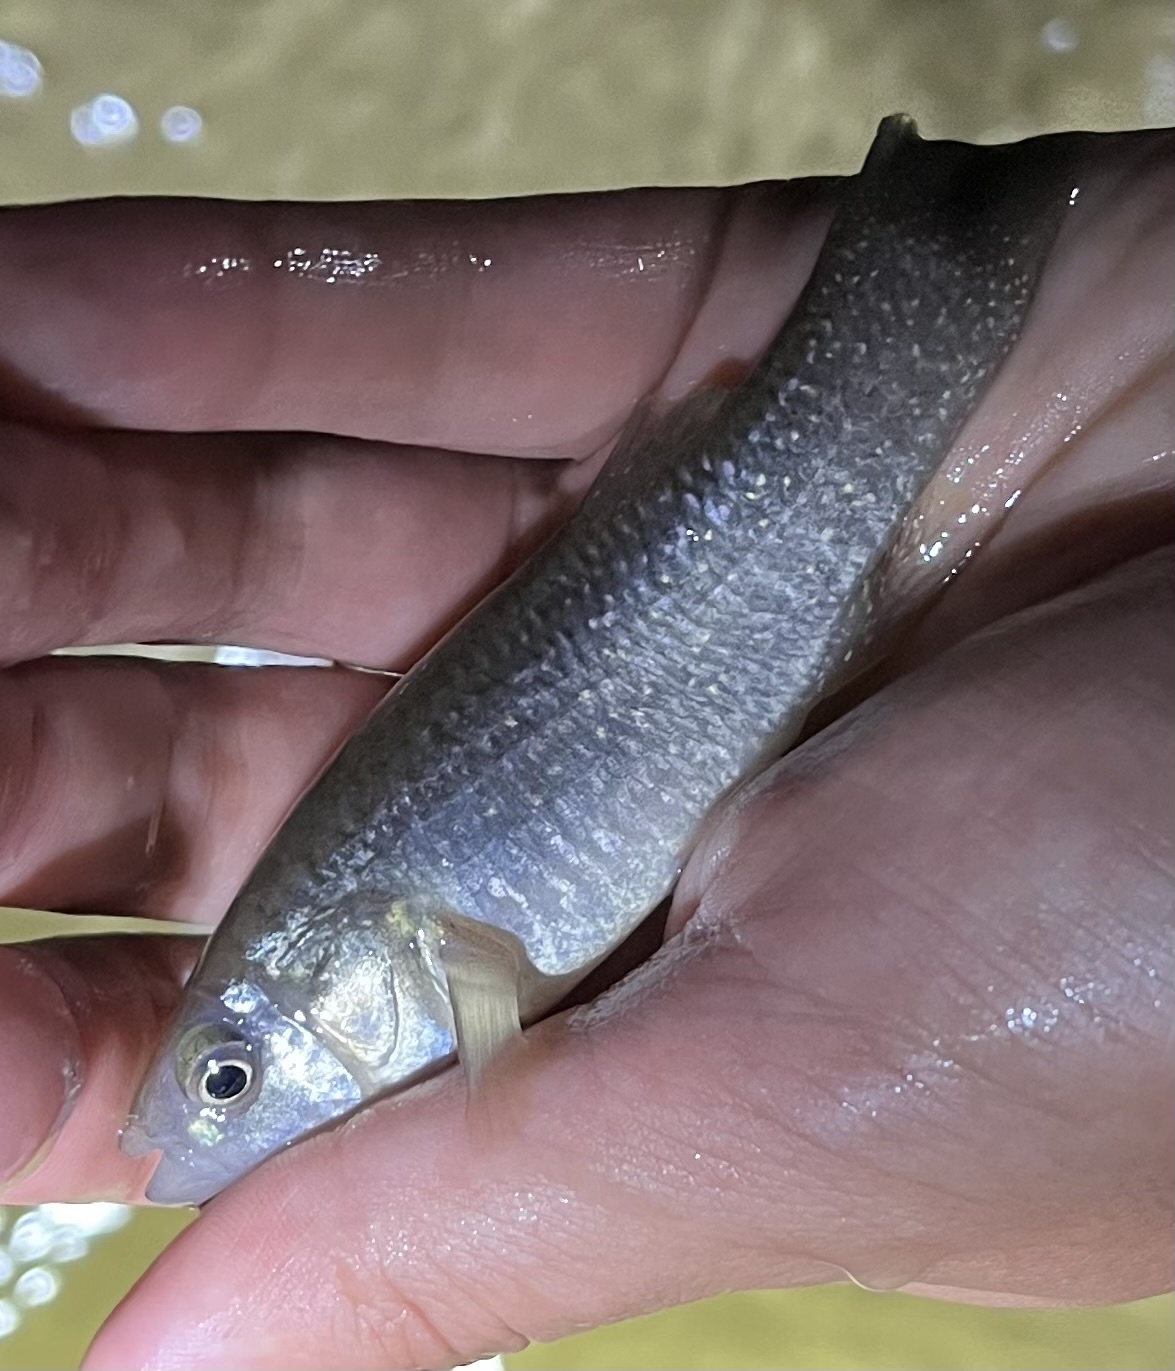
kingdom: Animalia
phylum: Chordata
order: Cyprinodontiformes
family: Fundulidae
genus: Fundulus
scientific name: Fundulus grandis
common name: Gulf killifish
